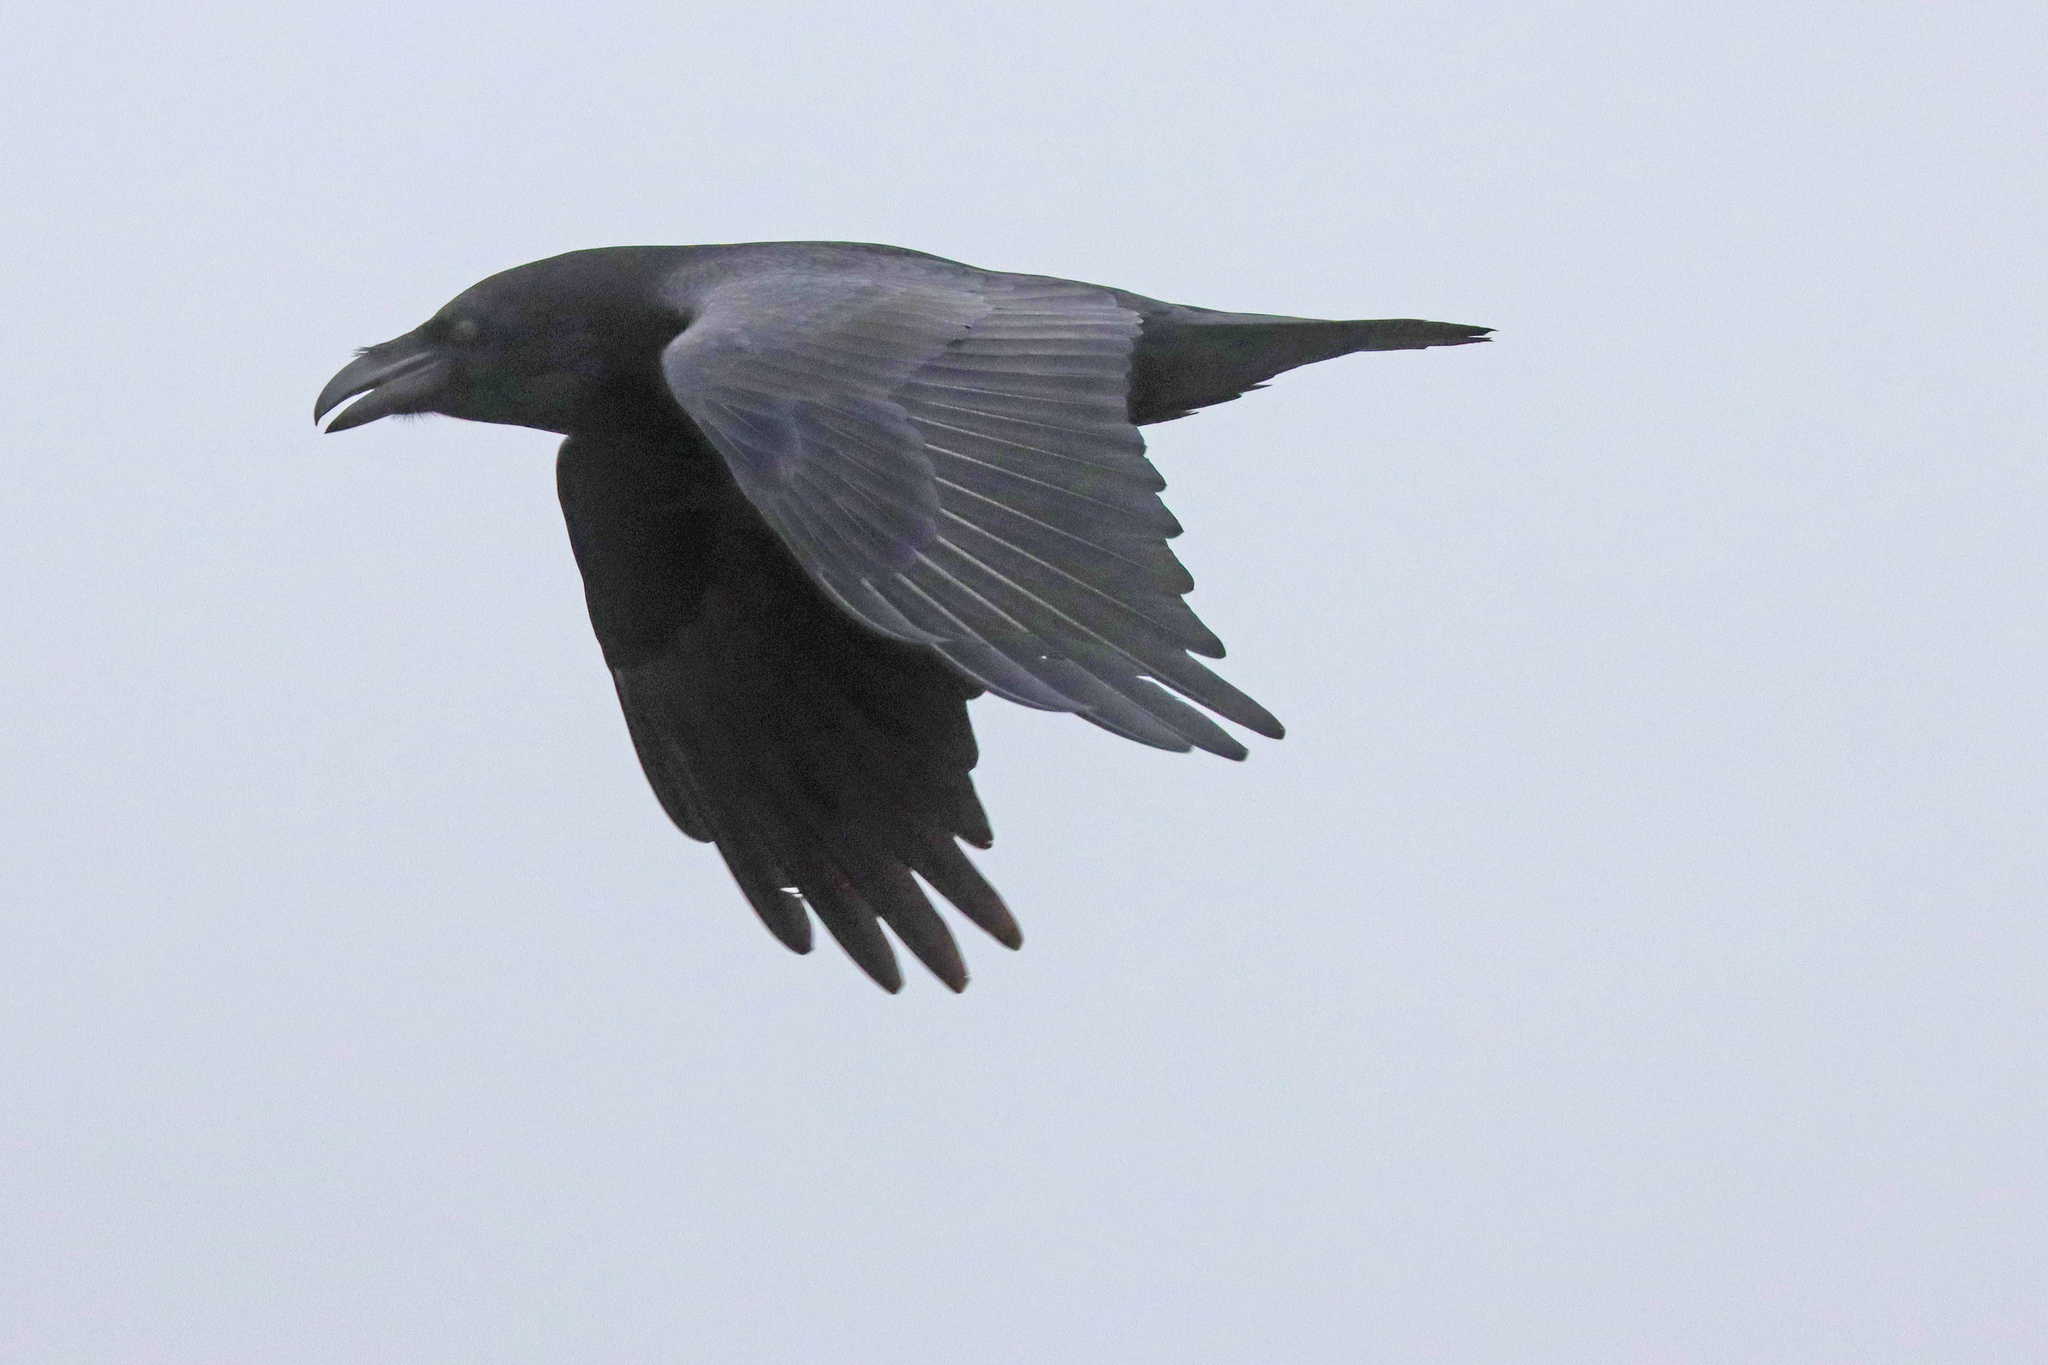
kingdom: Animalia
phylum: Chordata
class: Aves
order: Passeriformes
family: Corvidae
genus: Corvus
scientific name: Corvus corax
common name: Common raven
